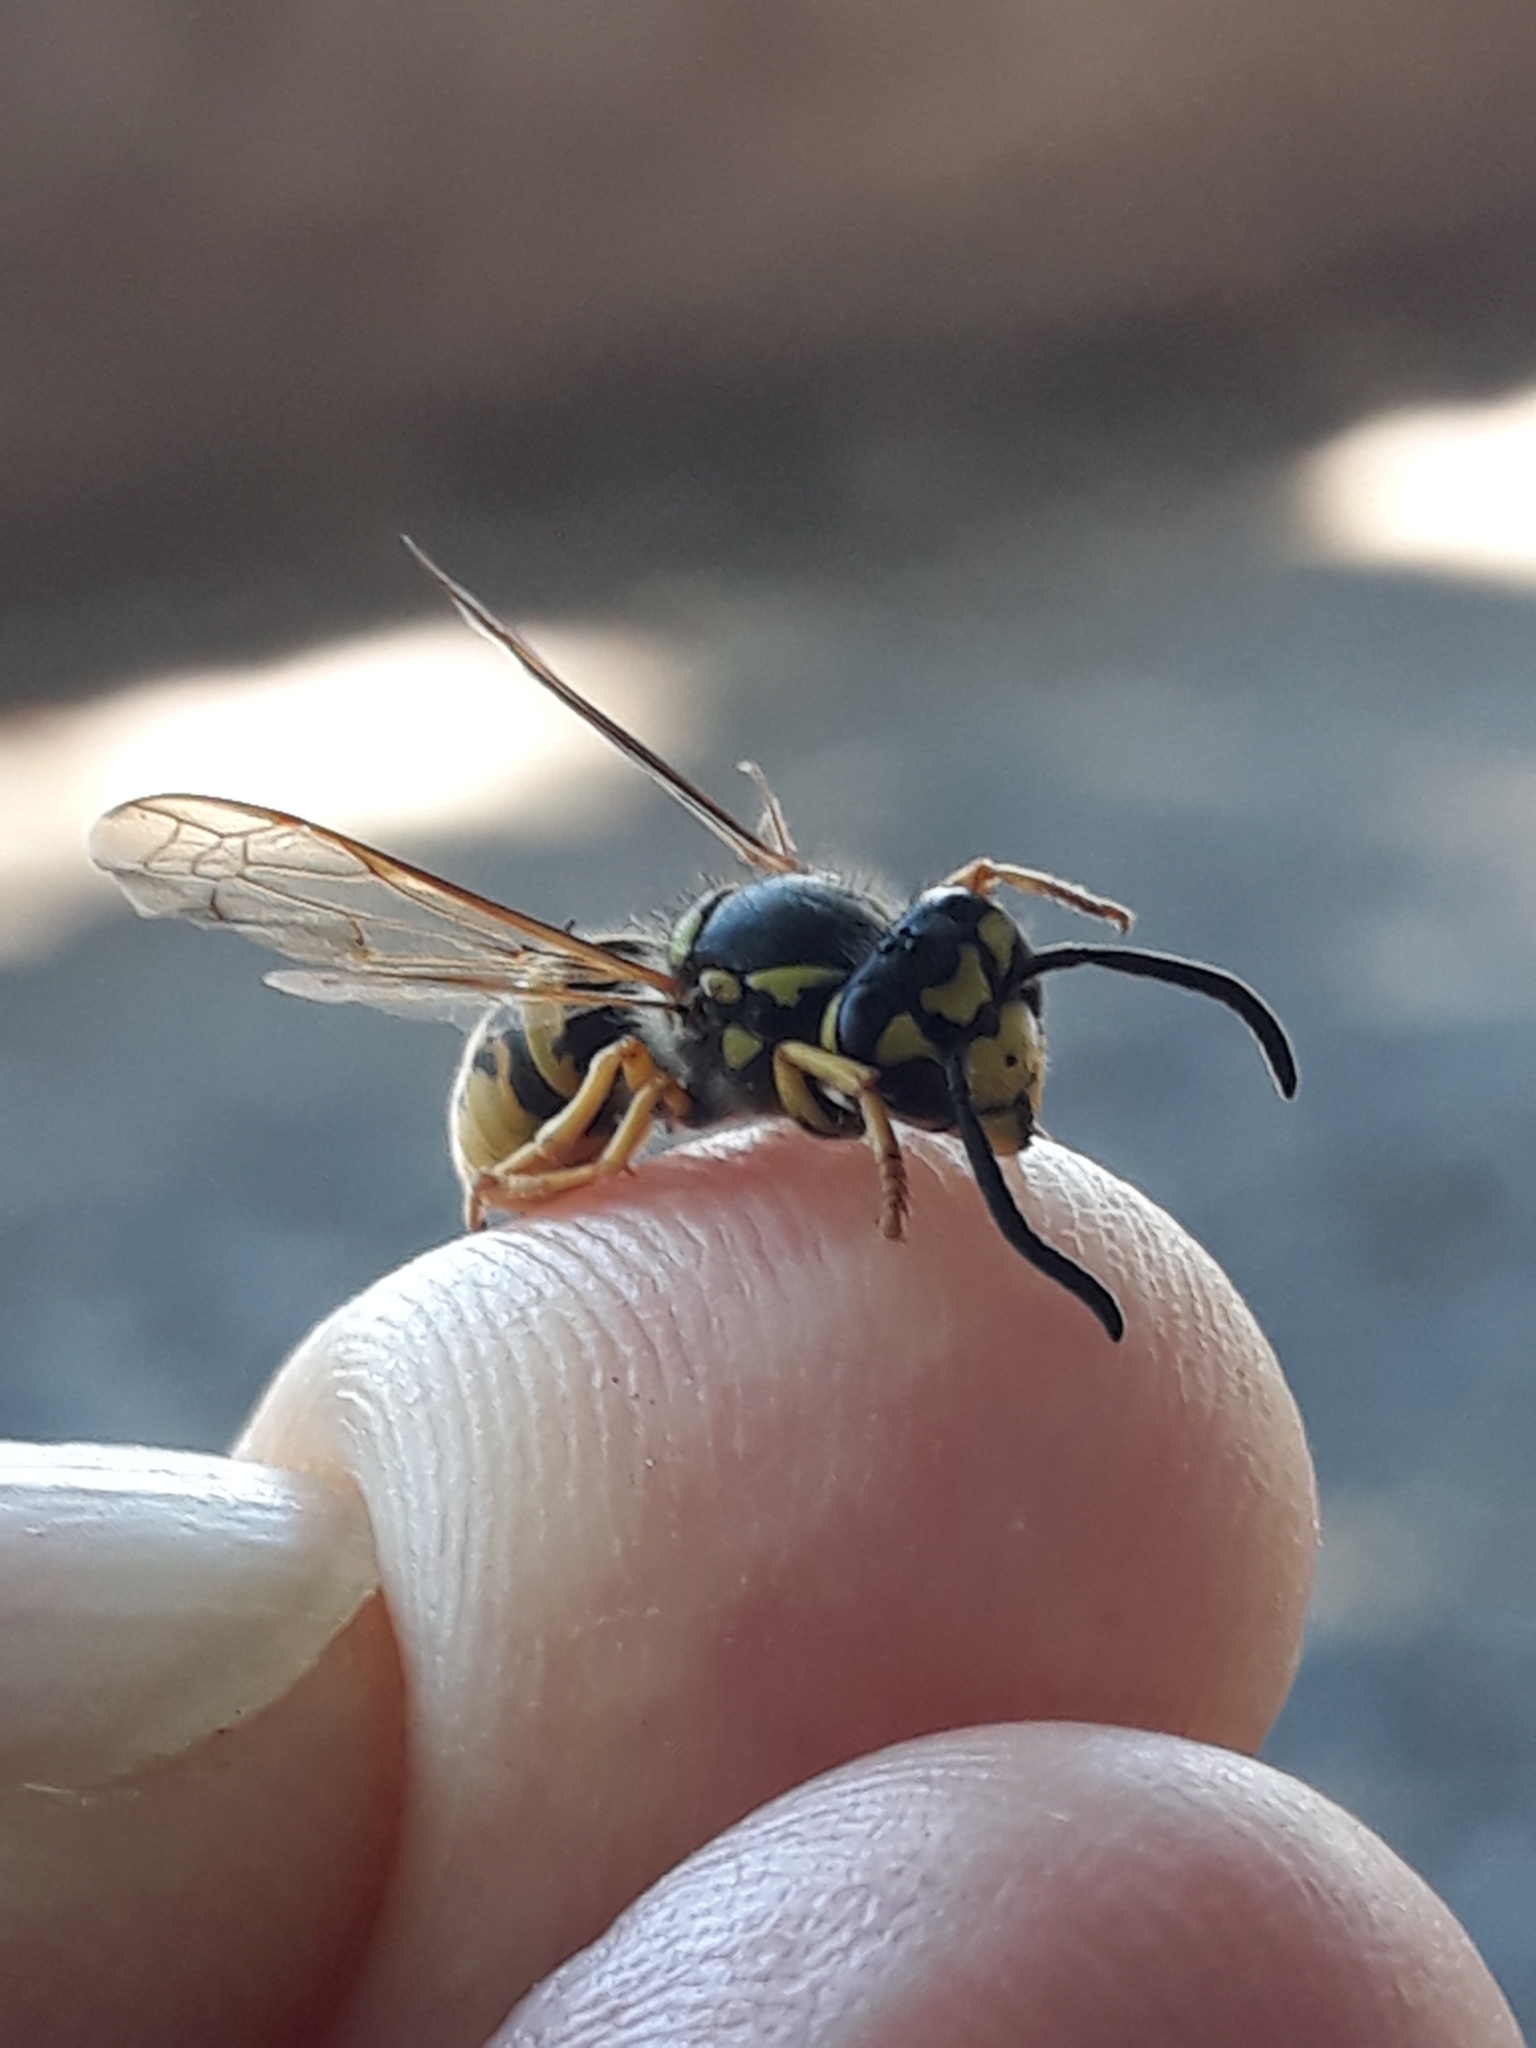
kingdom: Animalia
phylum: Arthropoda
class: Insecta
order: Hymenoptera
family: Vespidae
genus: Vespula
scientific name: Vespula germanica
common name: German wasp
